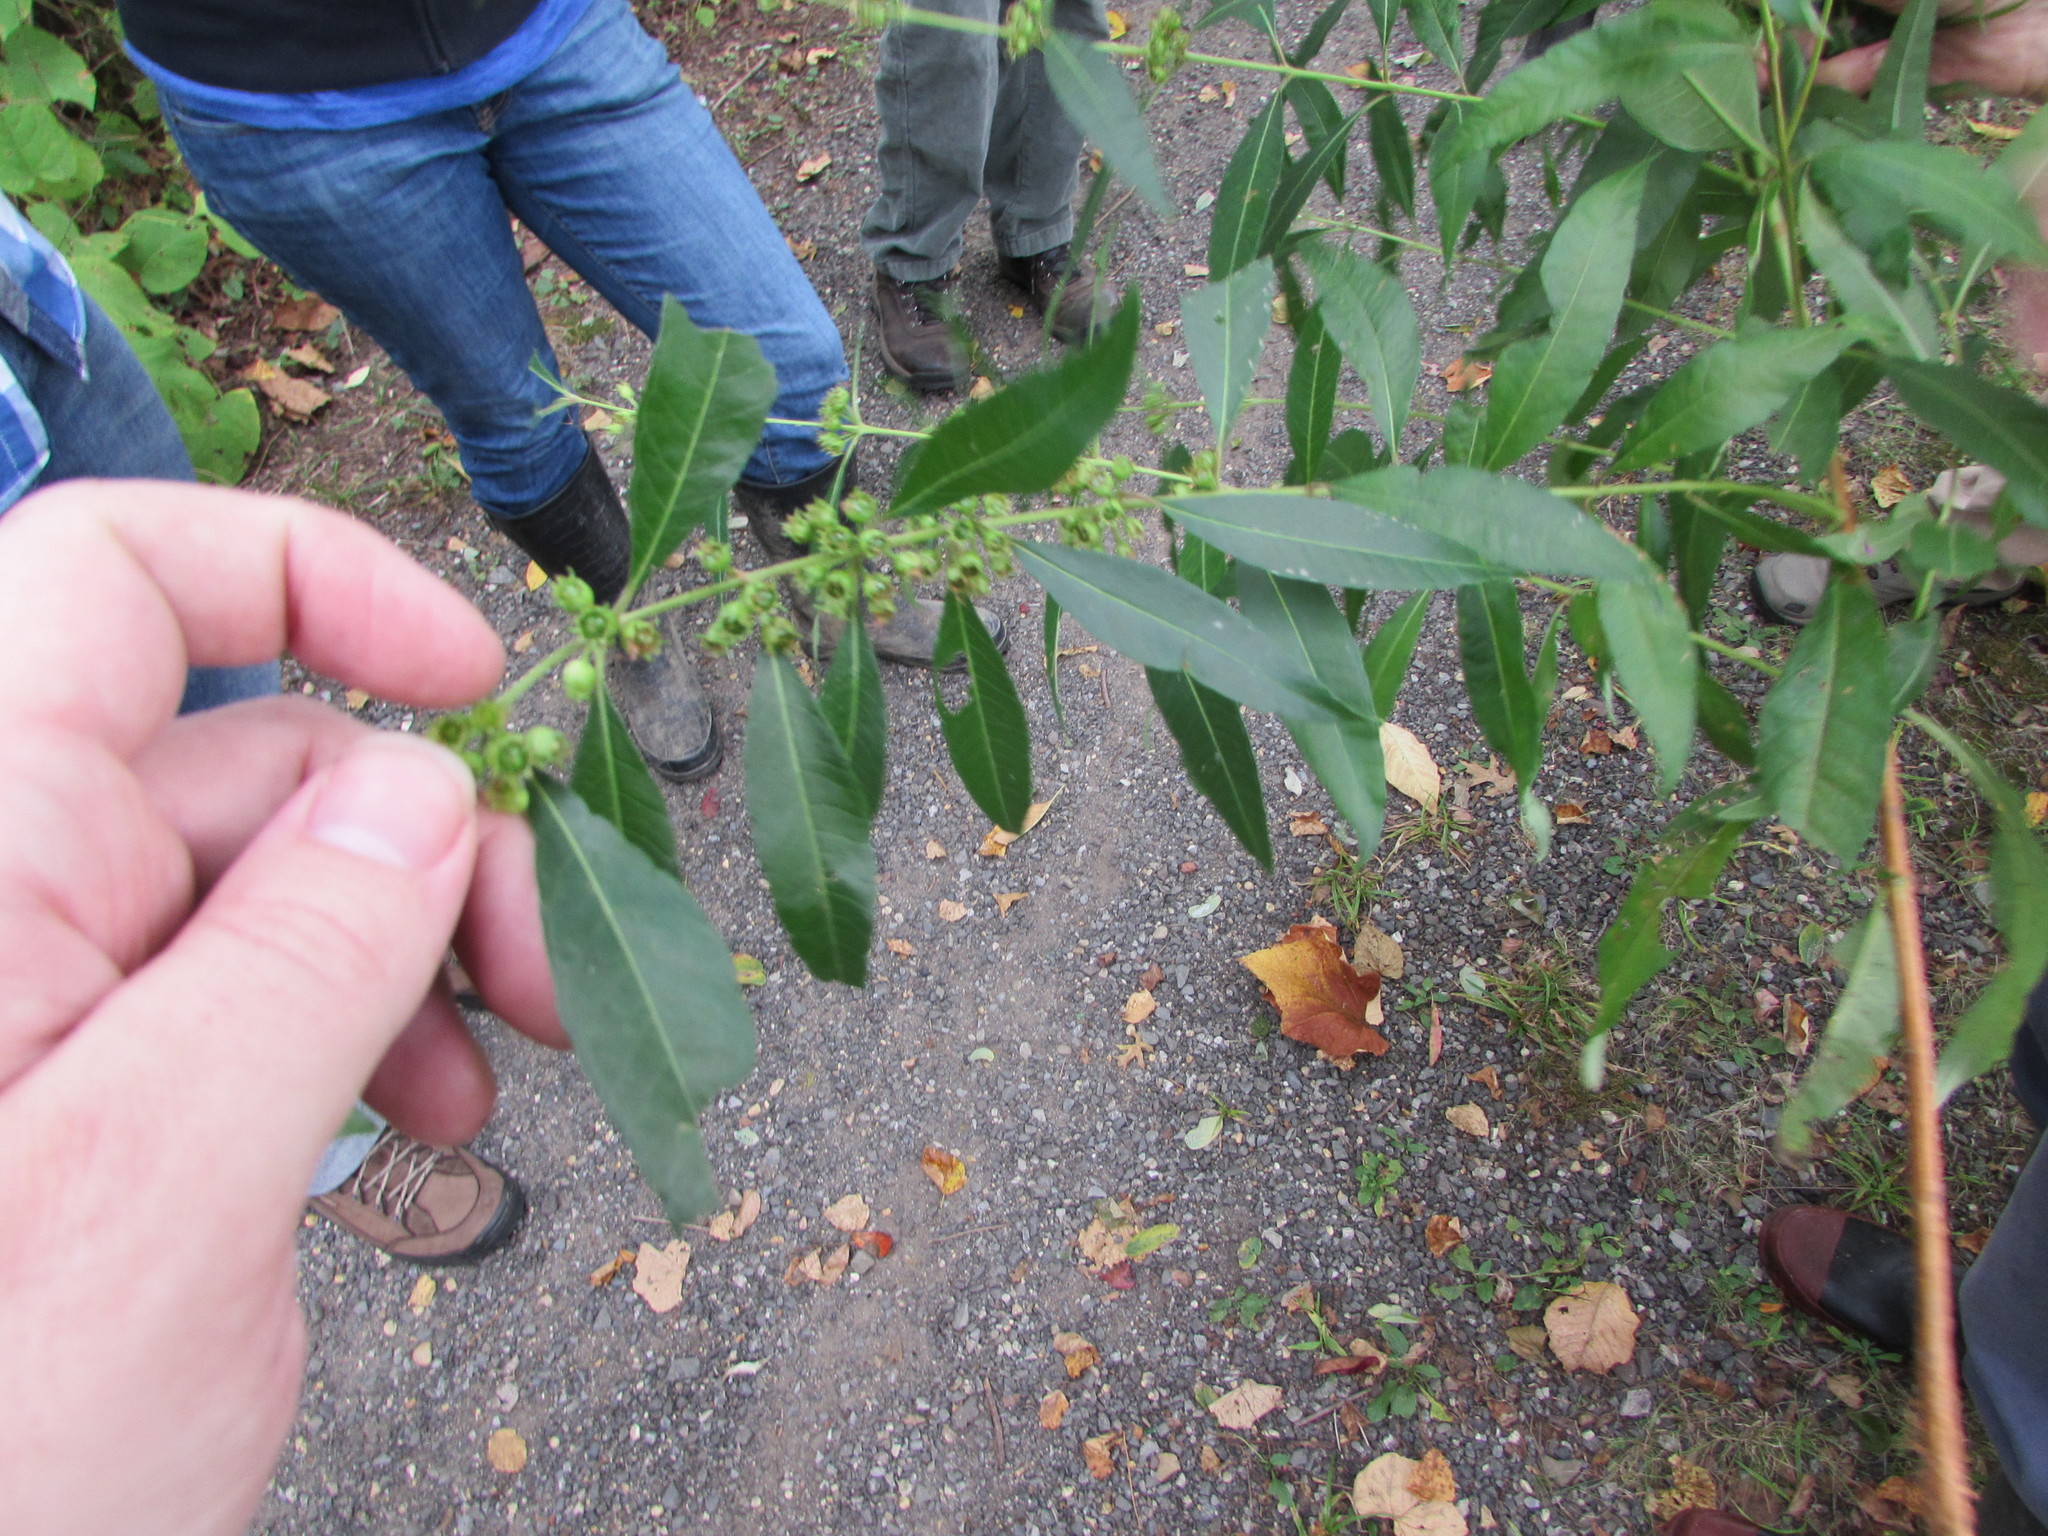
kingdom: Plantae
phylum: Tracheophyta
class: Magnoliopsida
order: Myrtales
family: Lythraceae
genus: Decodon
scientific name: Decodon verticillatus
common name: Hairy swamp loosestrife
